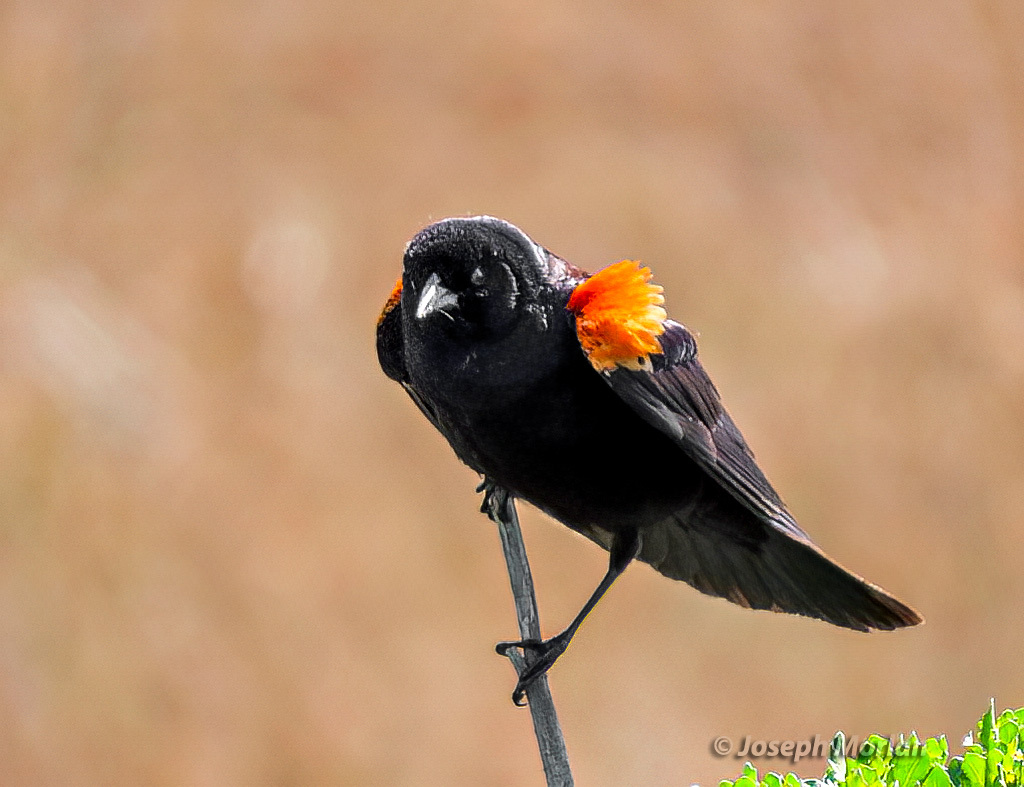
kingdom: Animalia
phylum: Chordata
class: Aves
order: Passeriformes
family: Icteridae
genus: Agelaius
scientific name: Agelaius phoeniceus
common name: Red-winged blackbird
